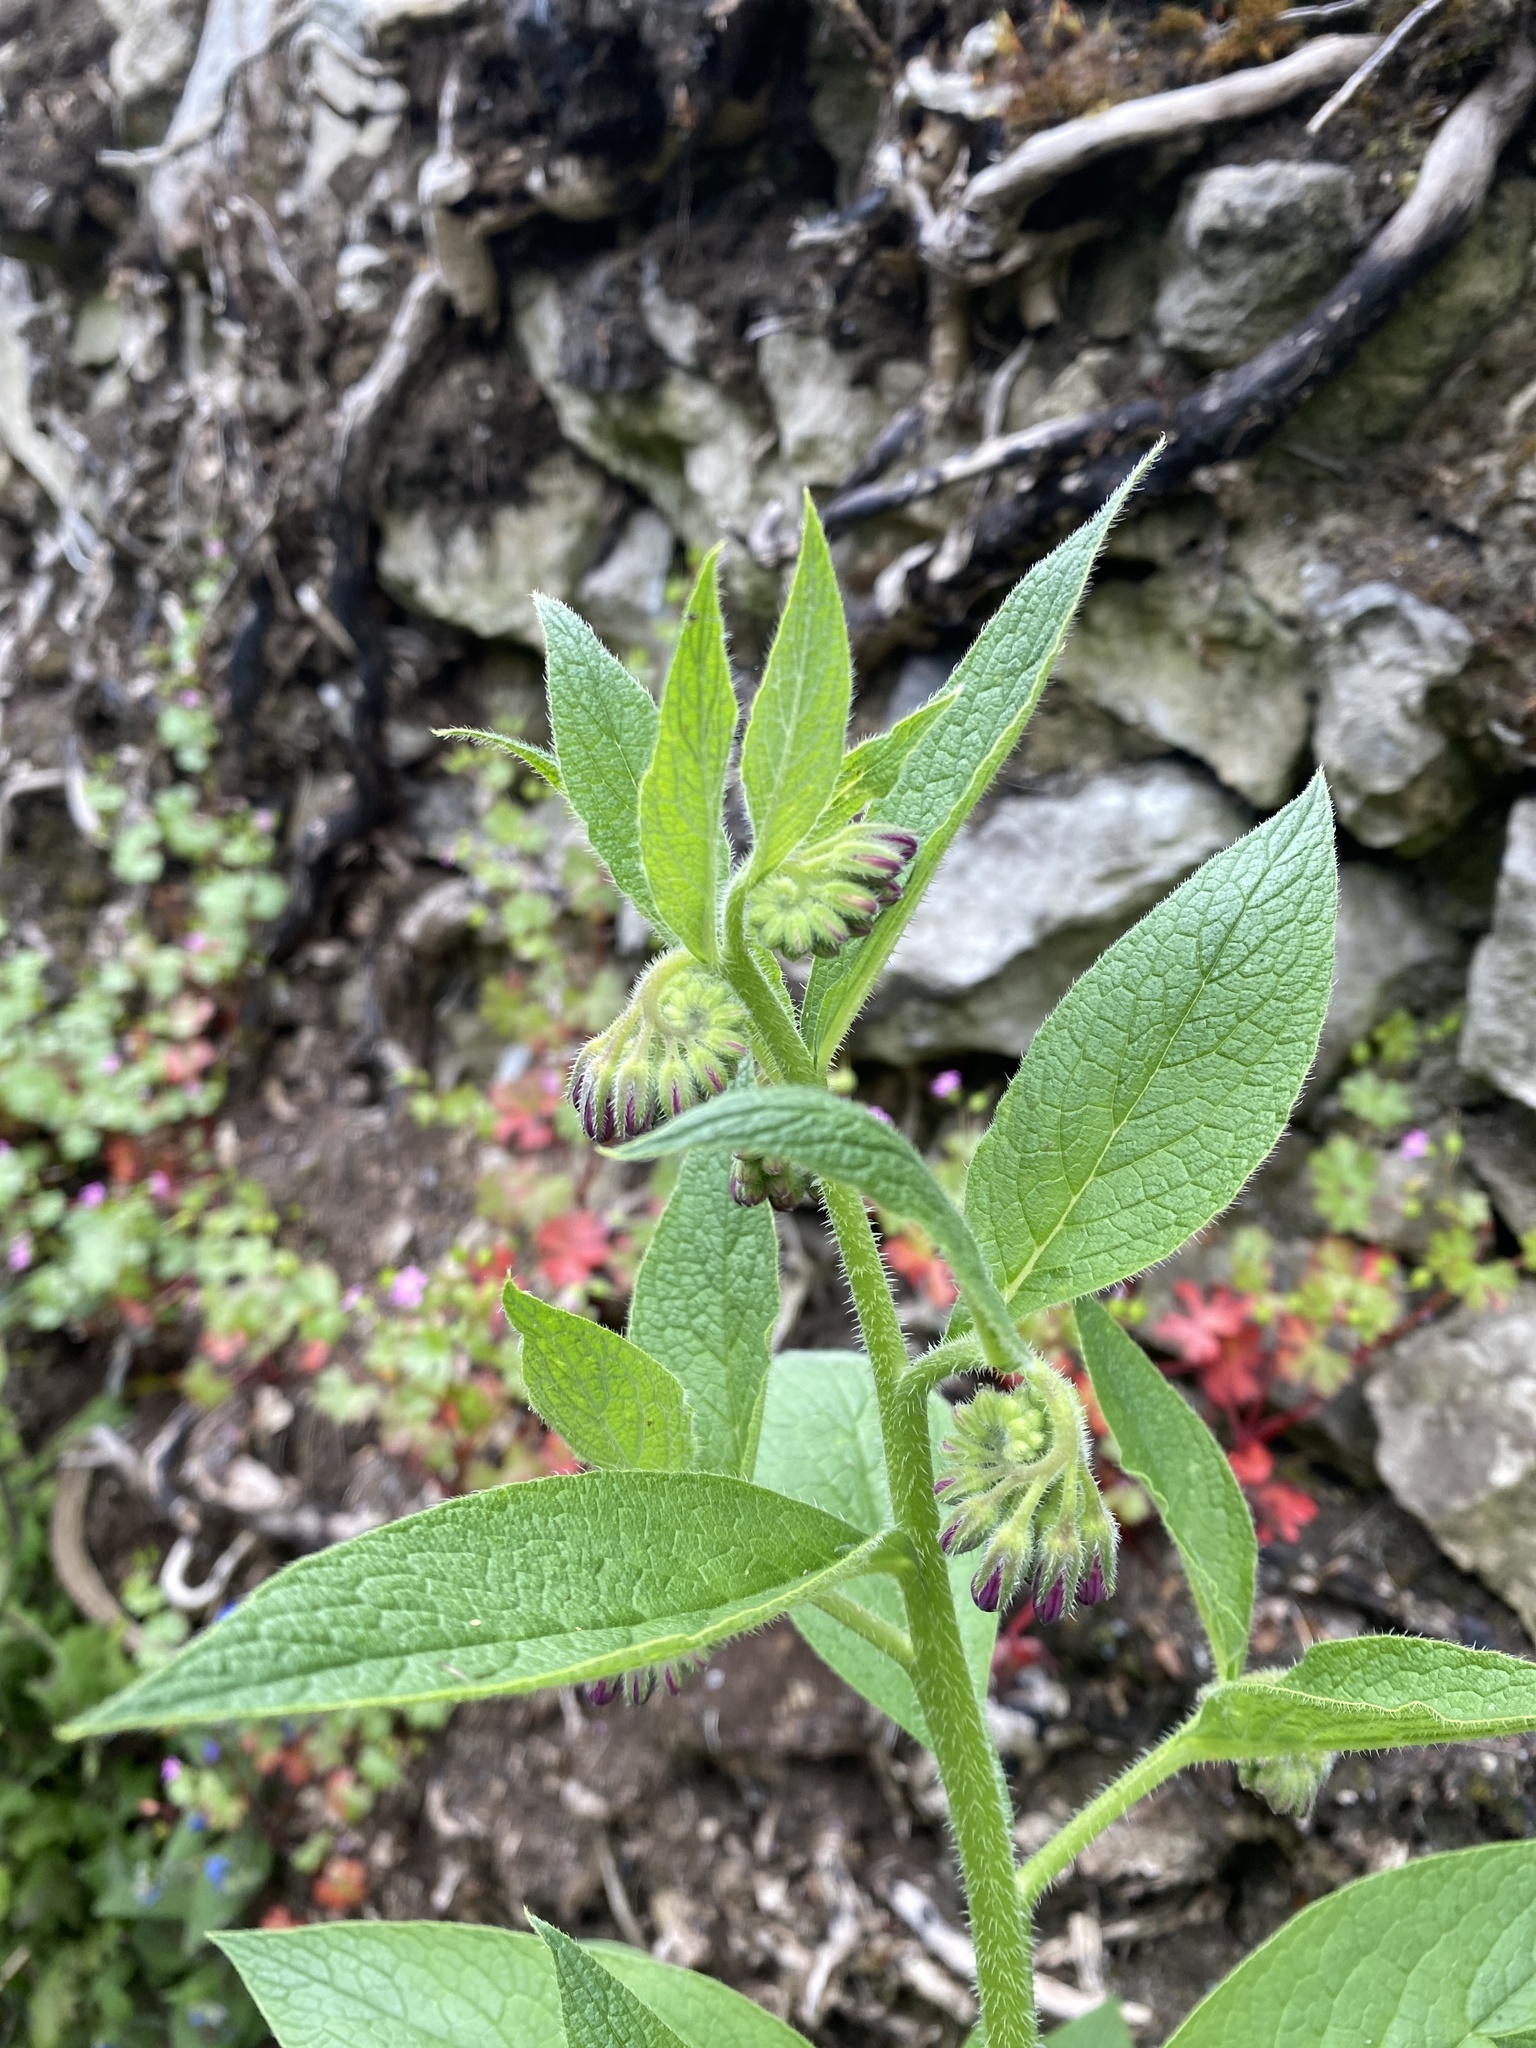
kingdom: Plantae
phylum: Tracheophyta
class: Magnoliopsida
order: Boraginales
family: Boraginaceae
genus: Symphytum
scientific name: Symphytum uplandicum
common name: Russian comfrey
